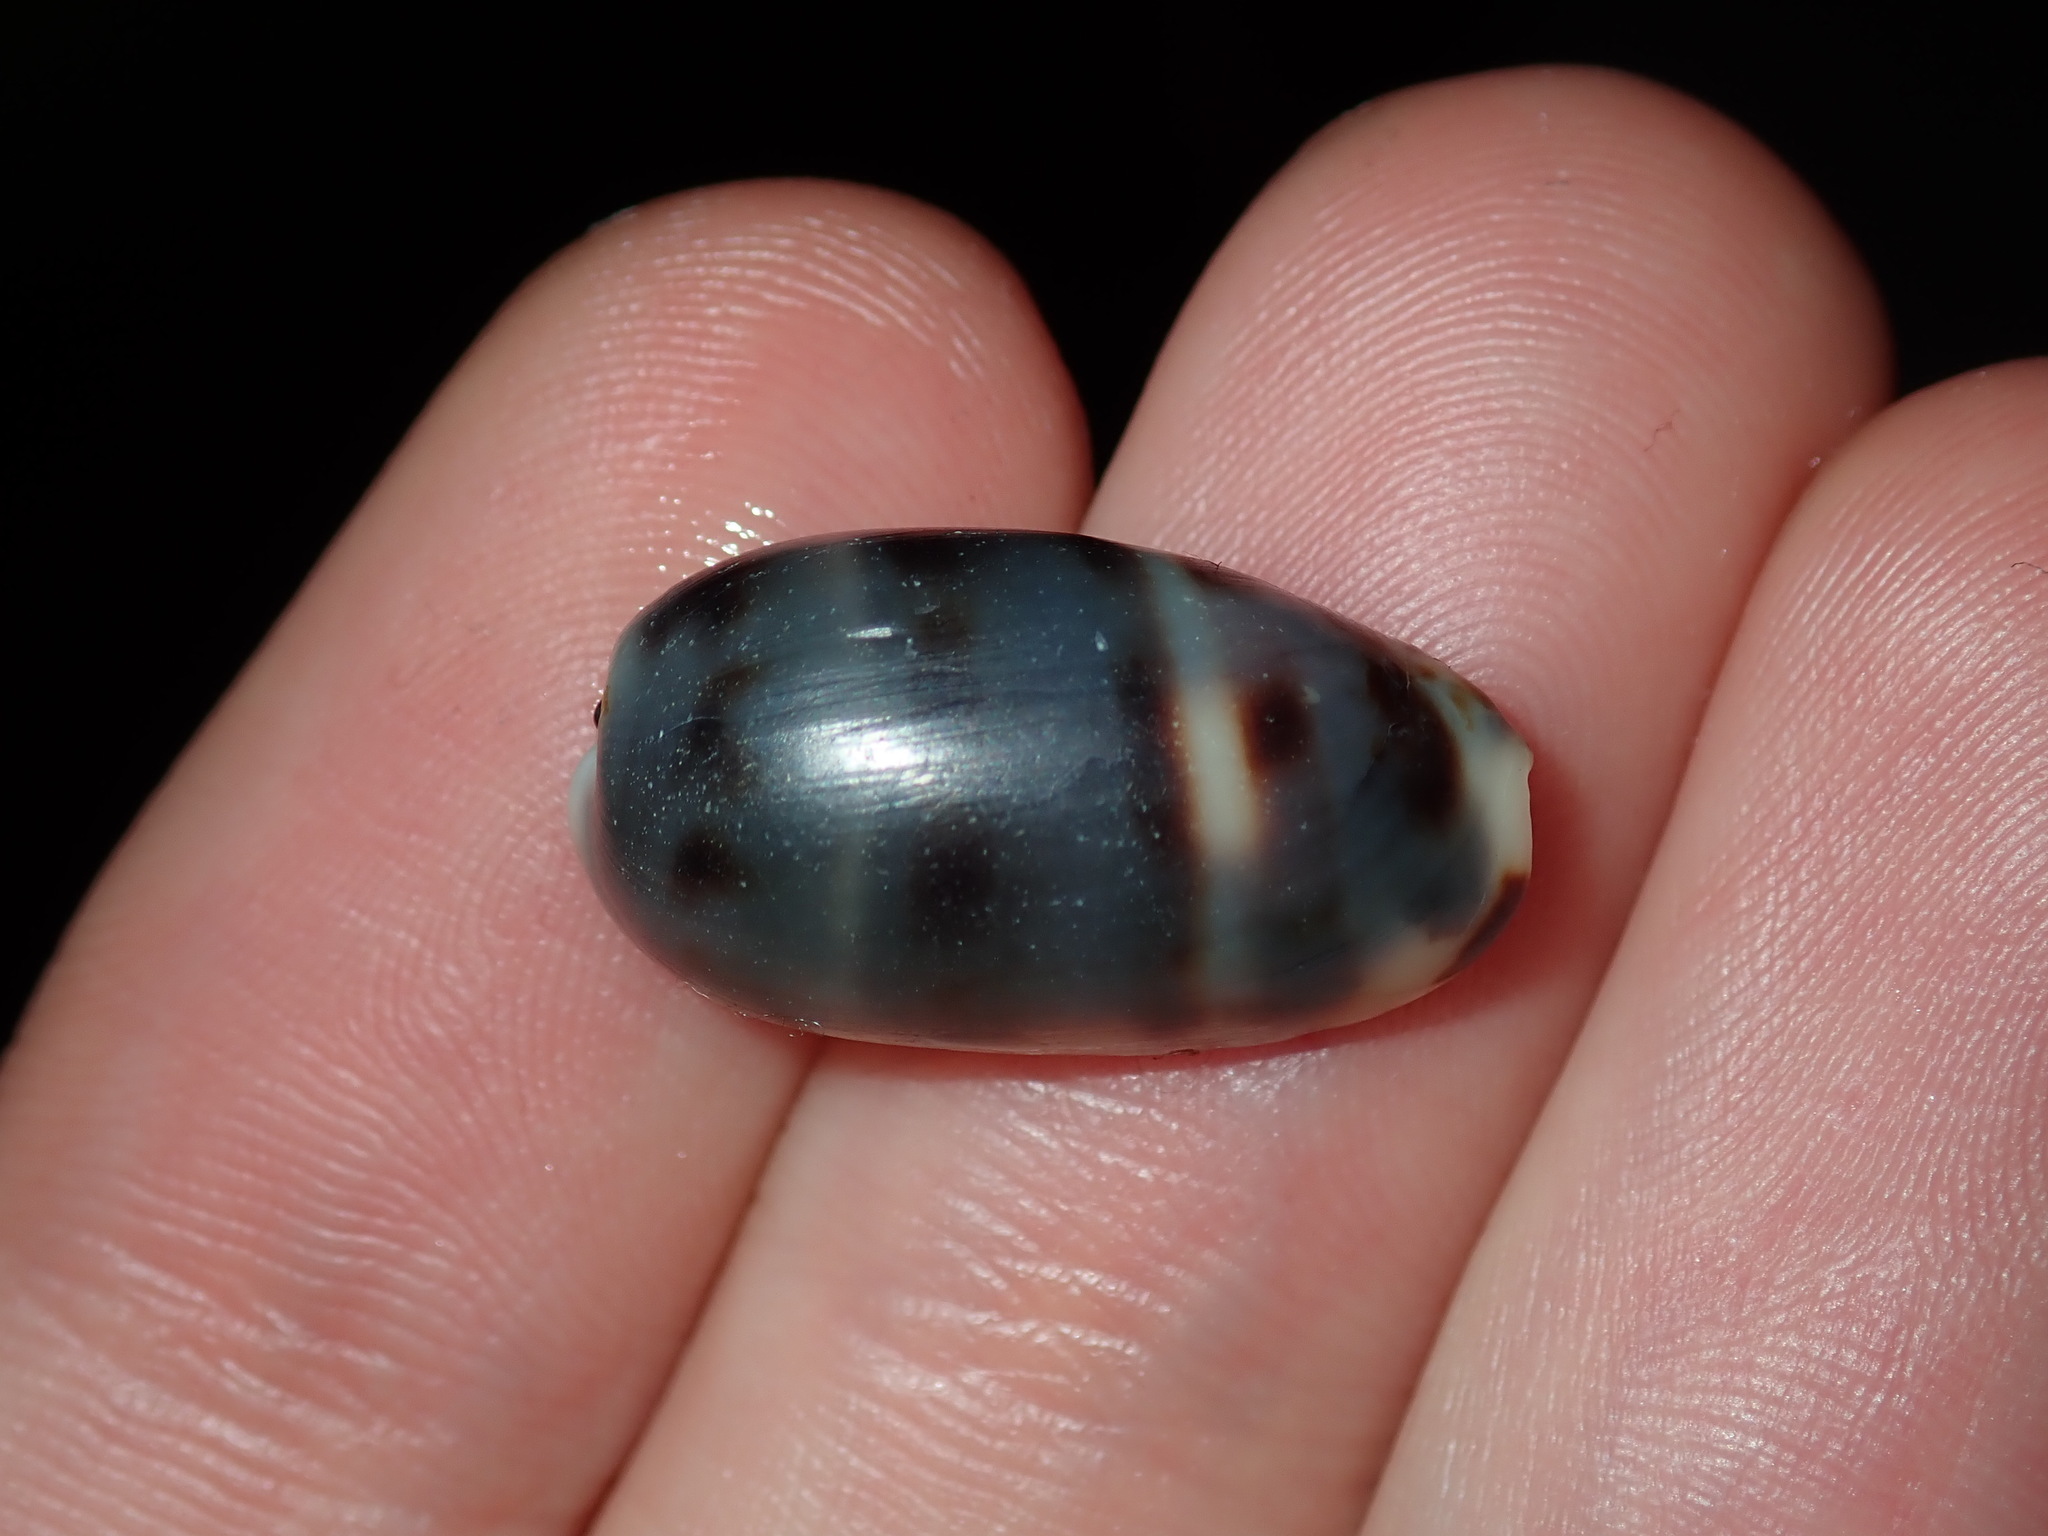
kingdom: Animalia
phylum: Mollusca
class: Gastropoda
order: Littorinimorpha
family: Cypraeidae
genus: Melicerona
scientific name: Melicerona listeri
